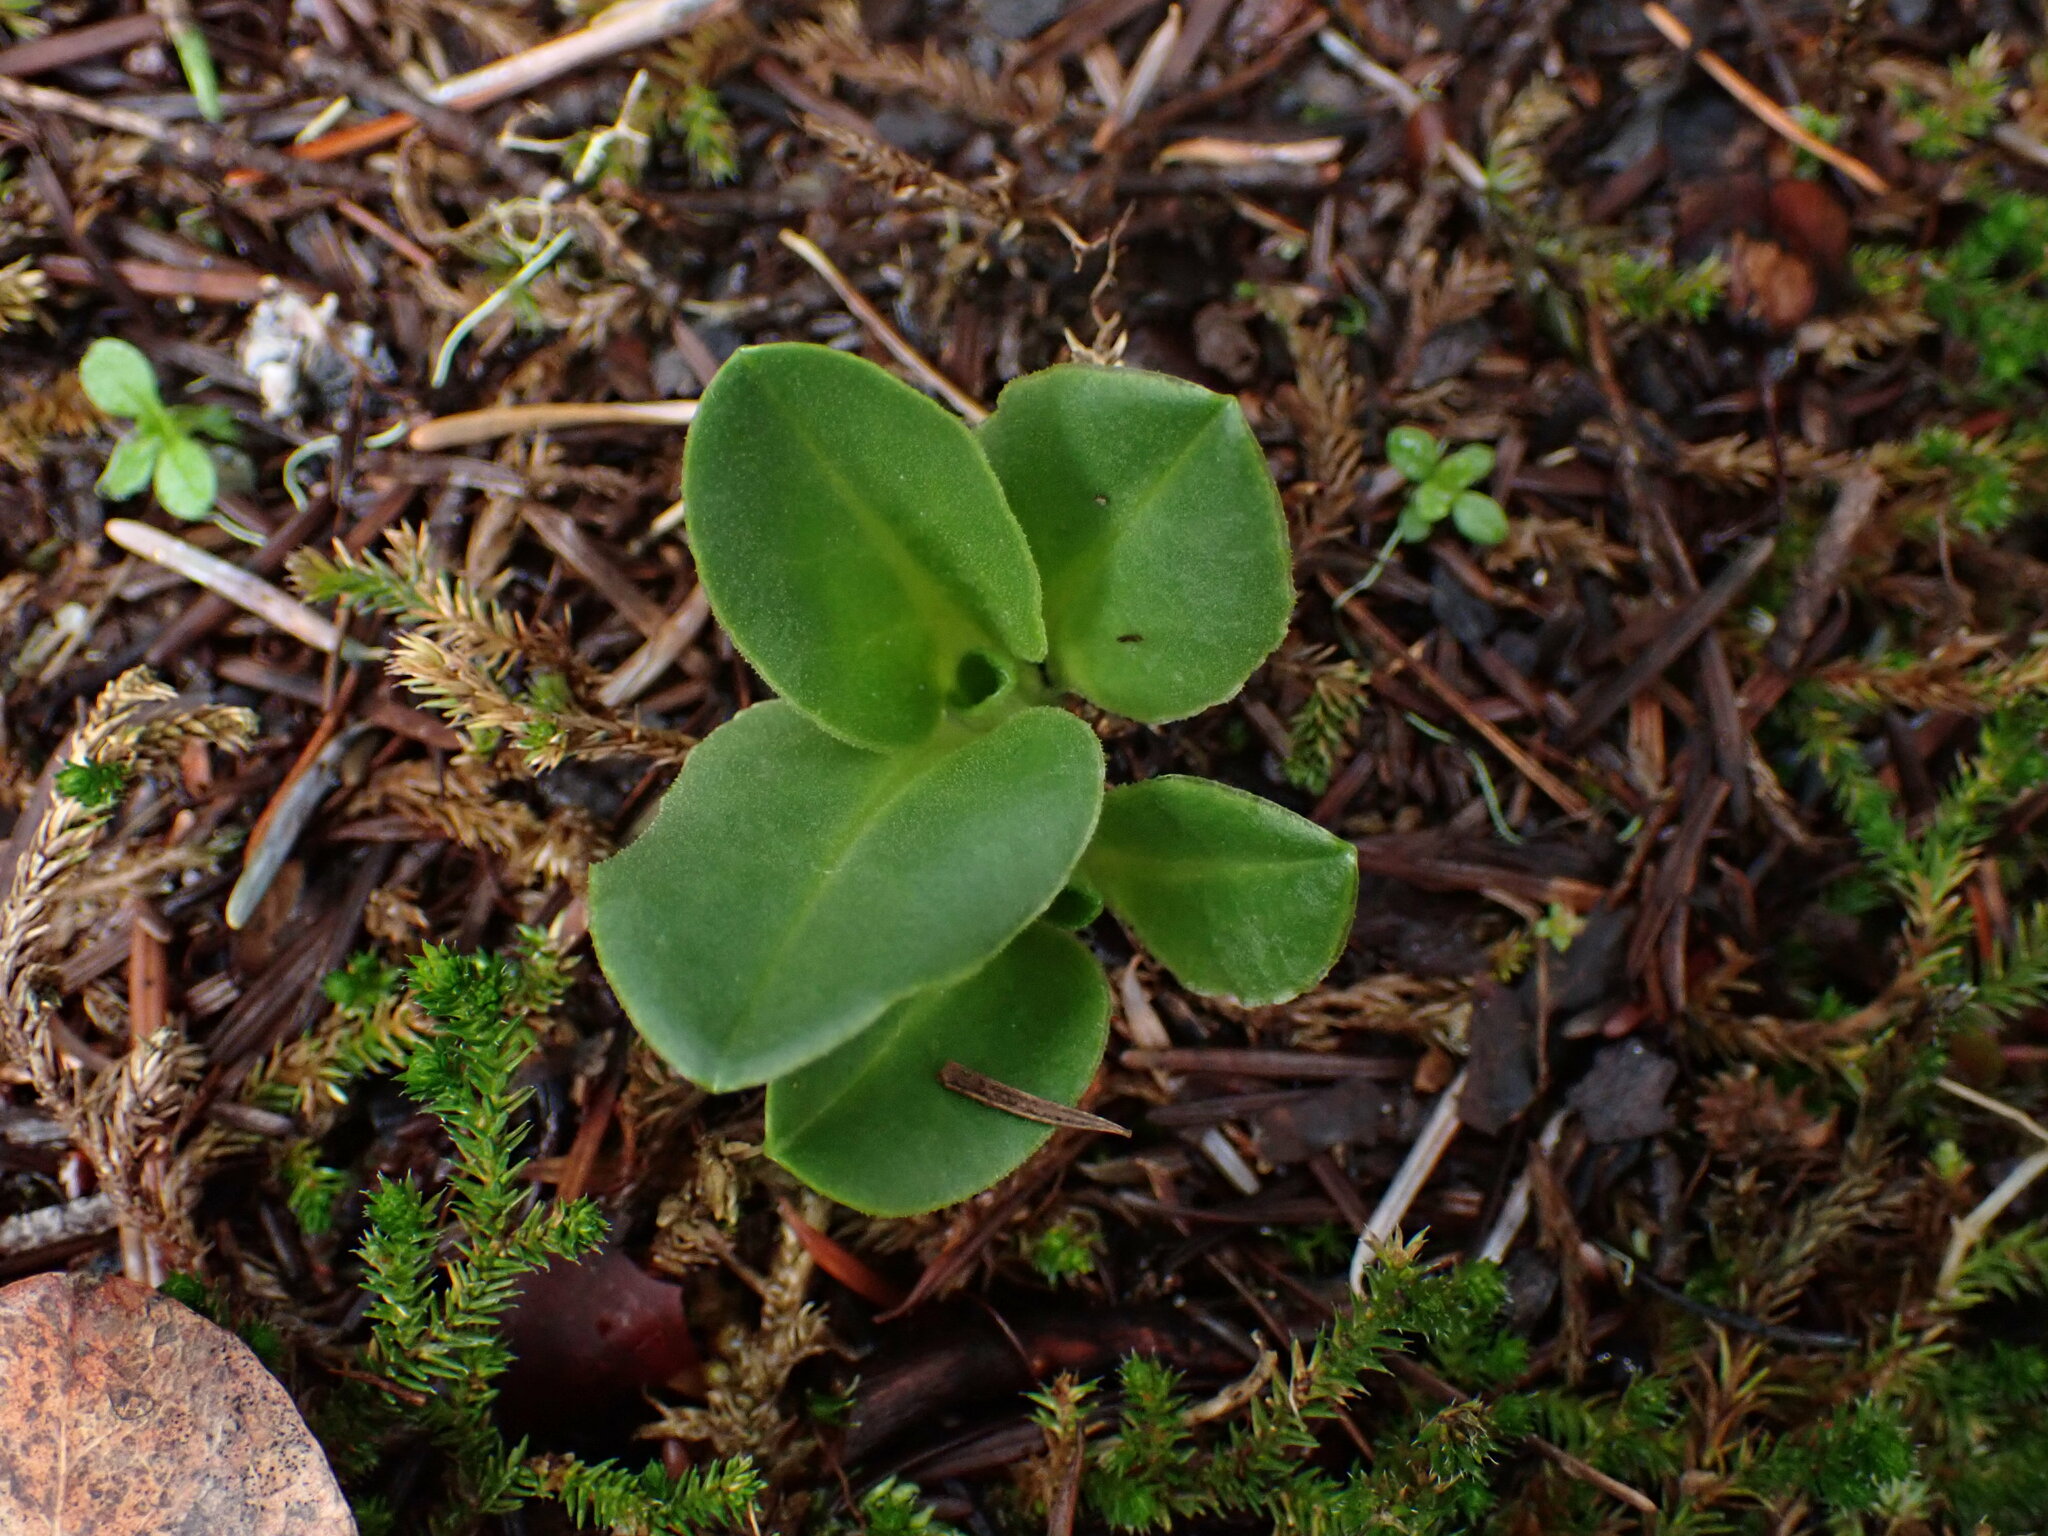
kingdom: Plantae
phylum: Tracheophyta
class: Magnoliopsida
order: Ericales
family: Primulaceae
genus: Dodecatheon
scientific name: Dodecatheon hendersonii
